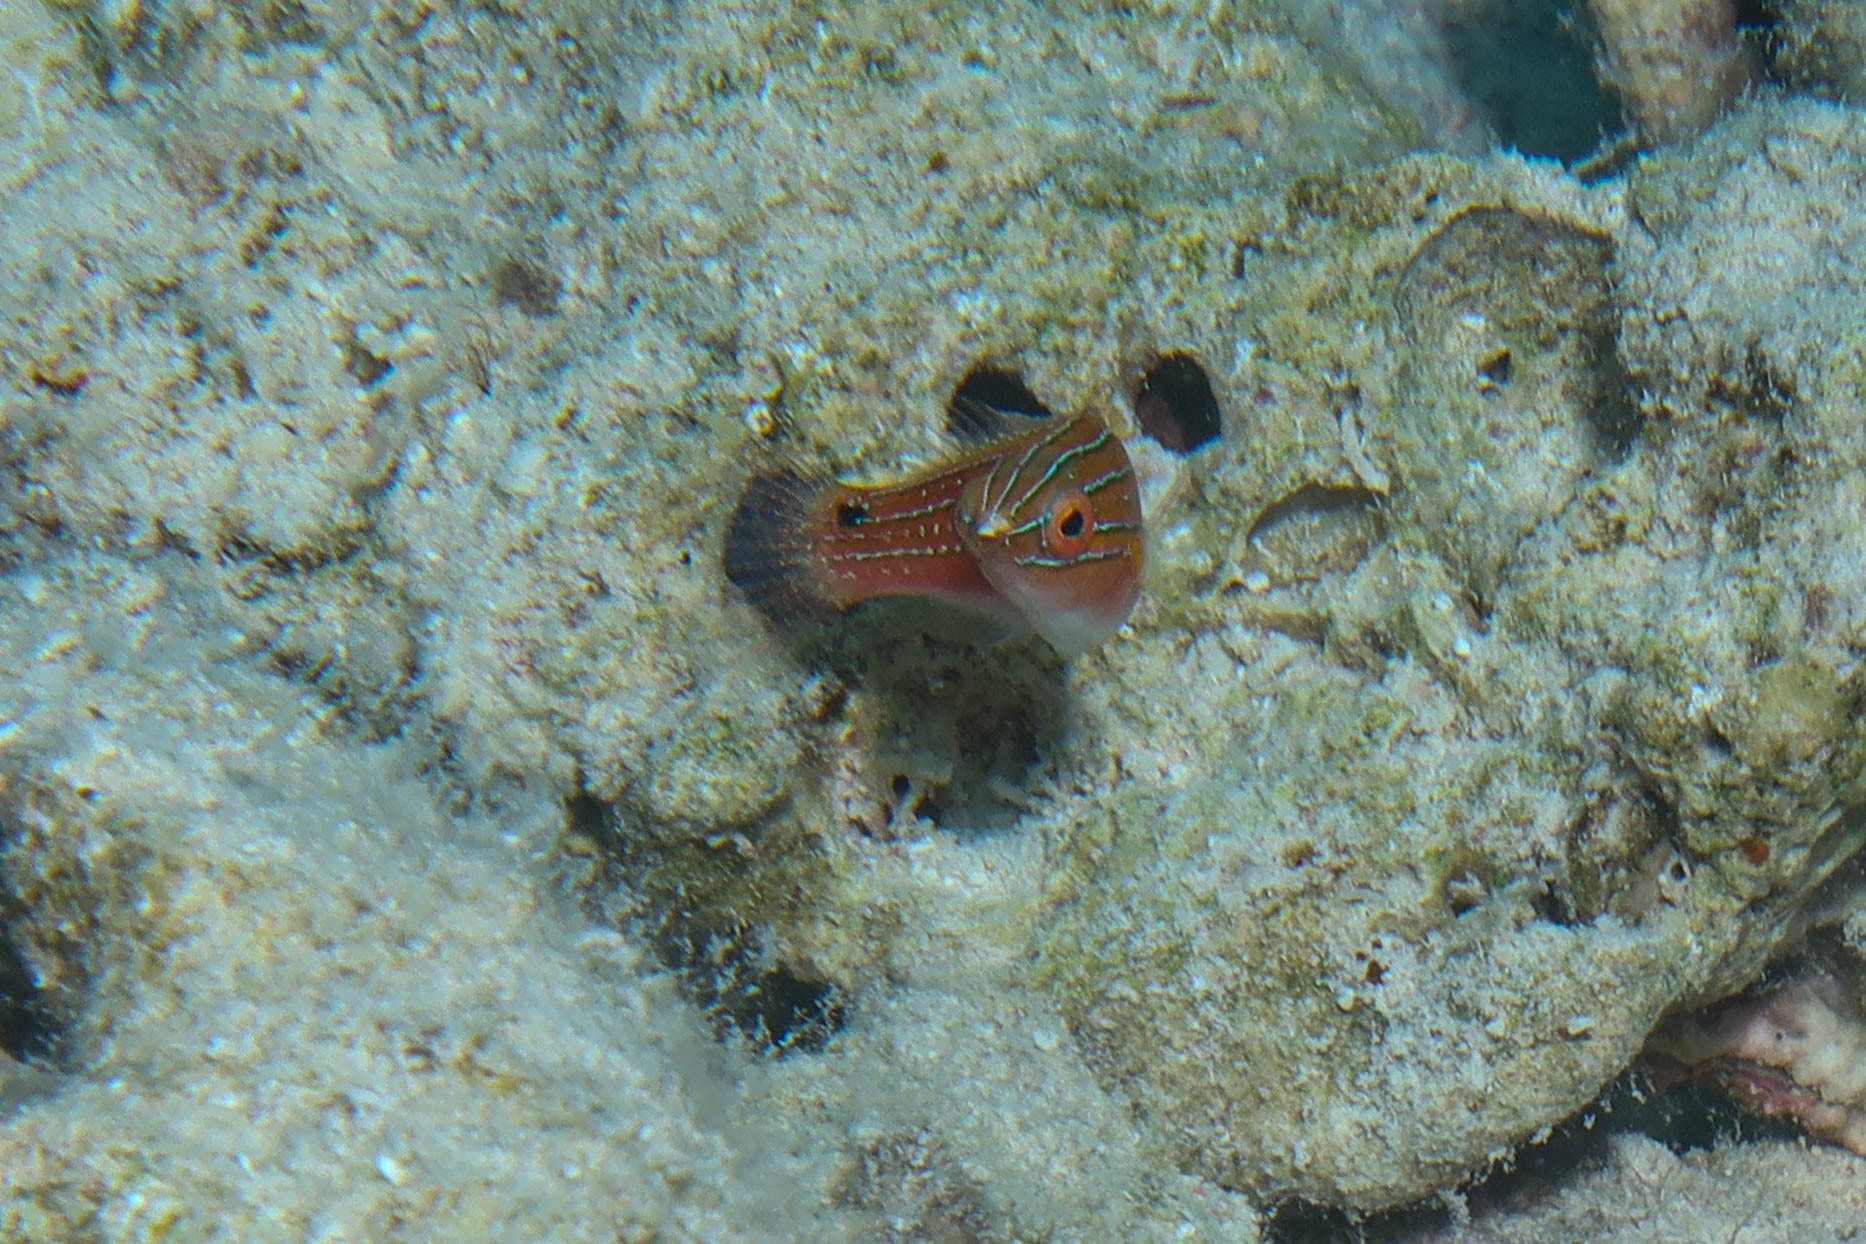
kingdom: Animalia
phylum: Chordata
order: Perciformes
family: Labridae
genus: Cirrhilabrus
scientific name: Cirrhilabrus rubriventralis
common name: Social wrasse
